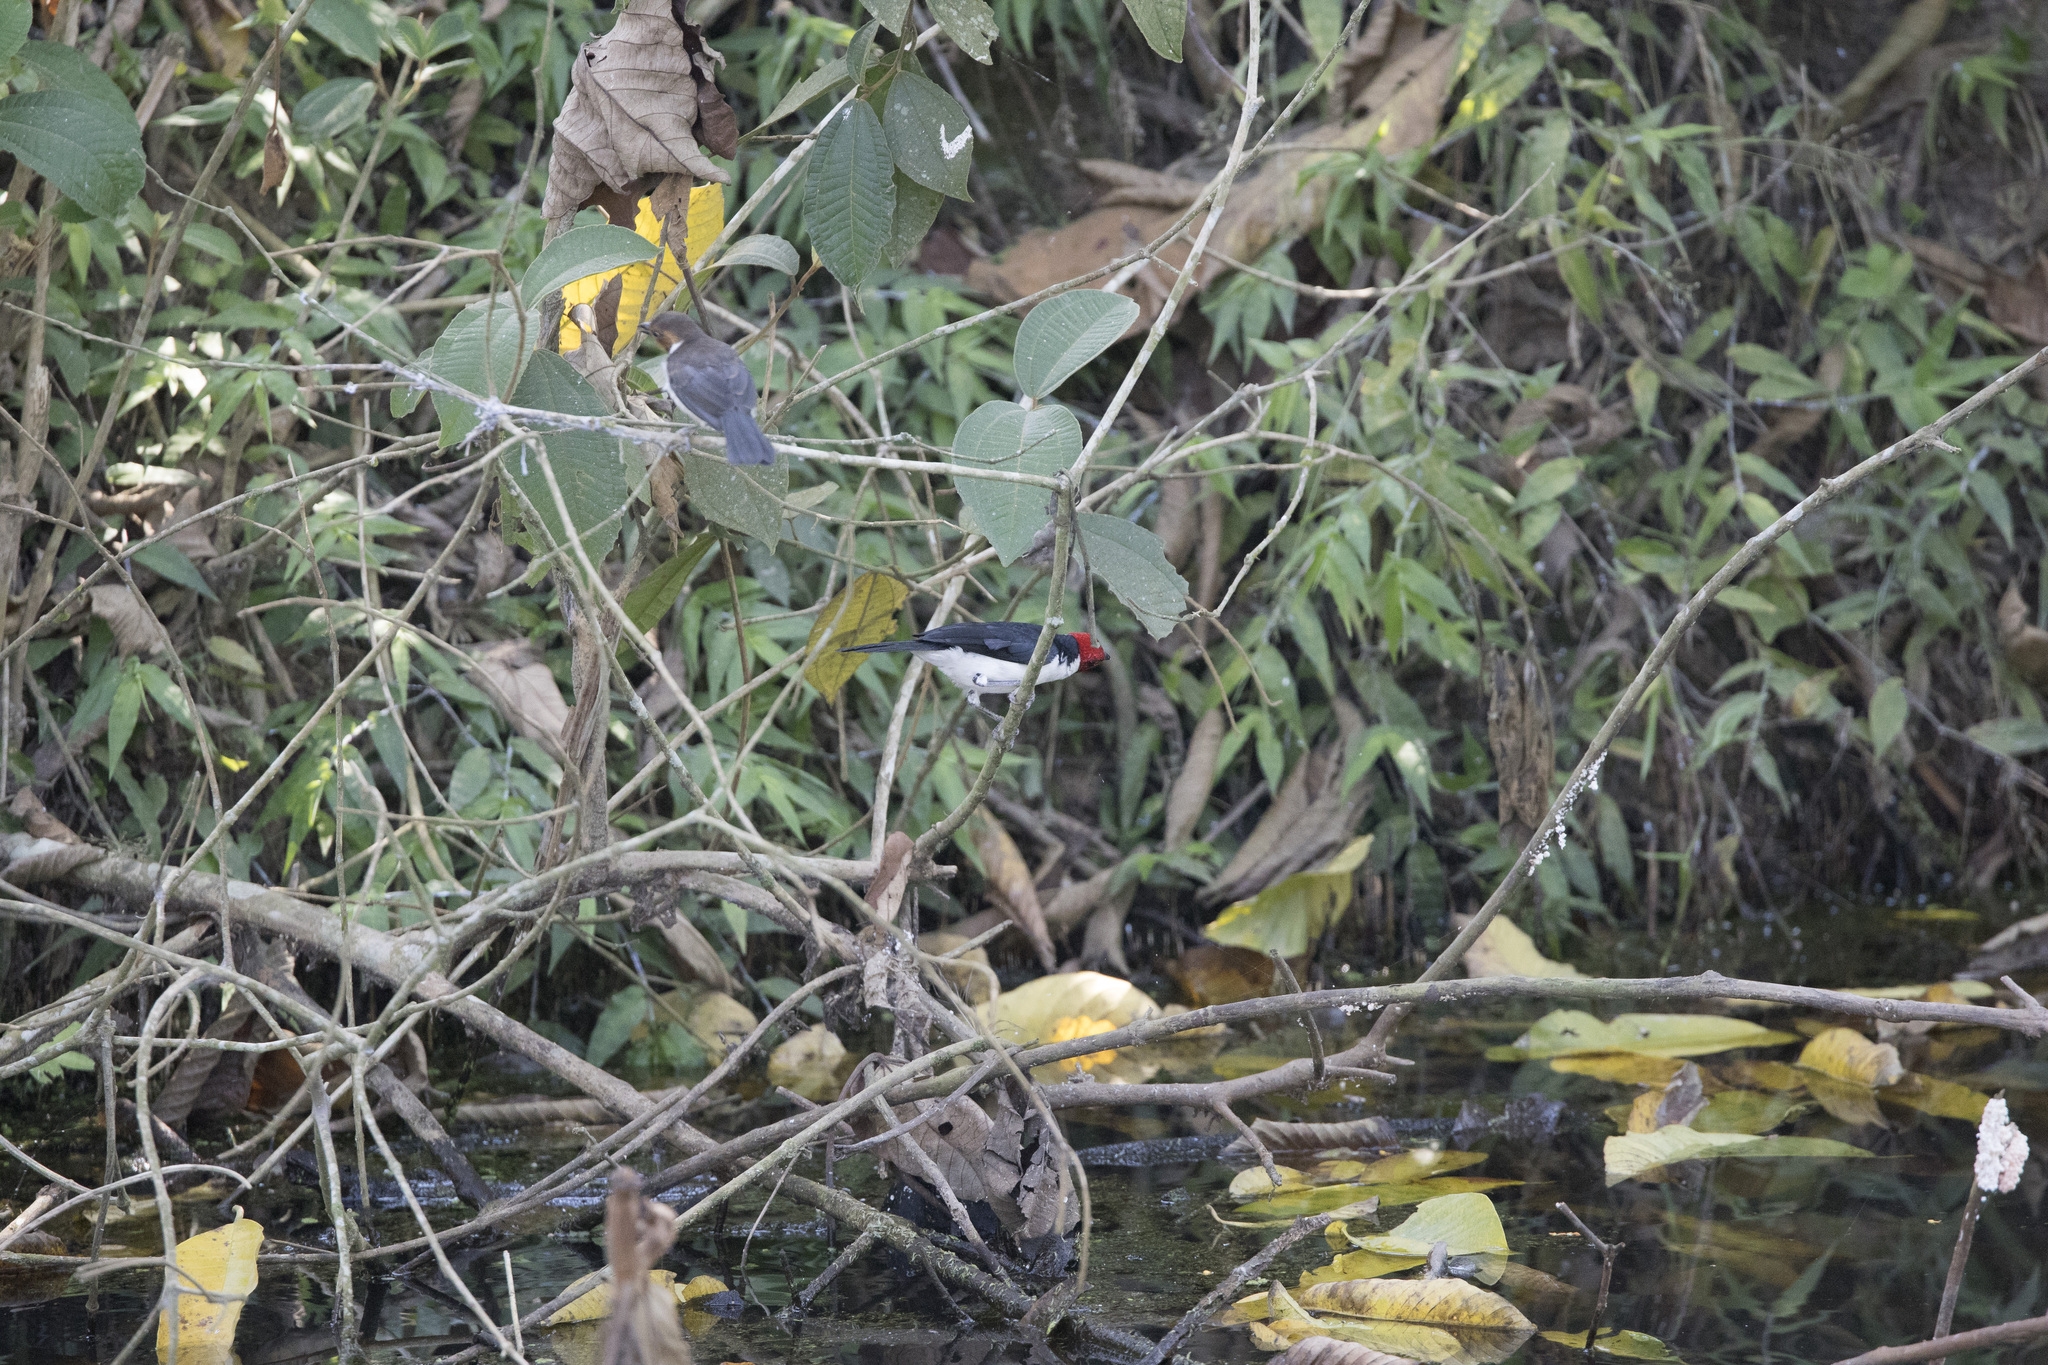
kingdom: Animalia
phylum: Chordata
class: Aves
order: Passeriformes
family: Thraupidae
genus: Paroaria
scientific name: Paroaria gularis
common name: Red-capped cardinal
